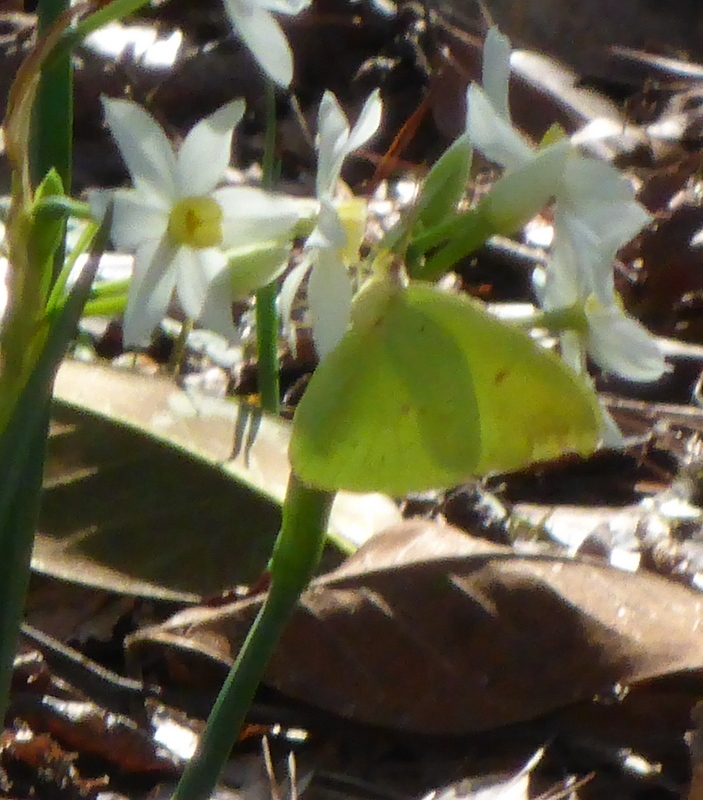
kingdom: Animalia
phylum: Arthropoda
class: Insecta
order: Lepidoptera
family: Pieridae
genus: Phoebis
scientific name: Phoebis sennae
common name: Cloudless sulphur
